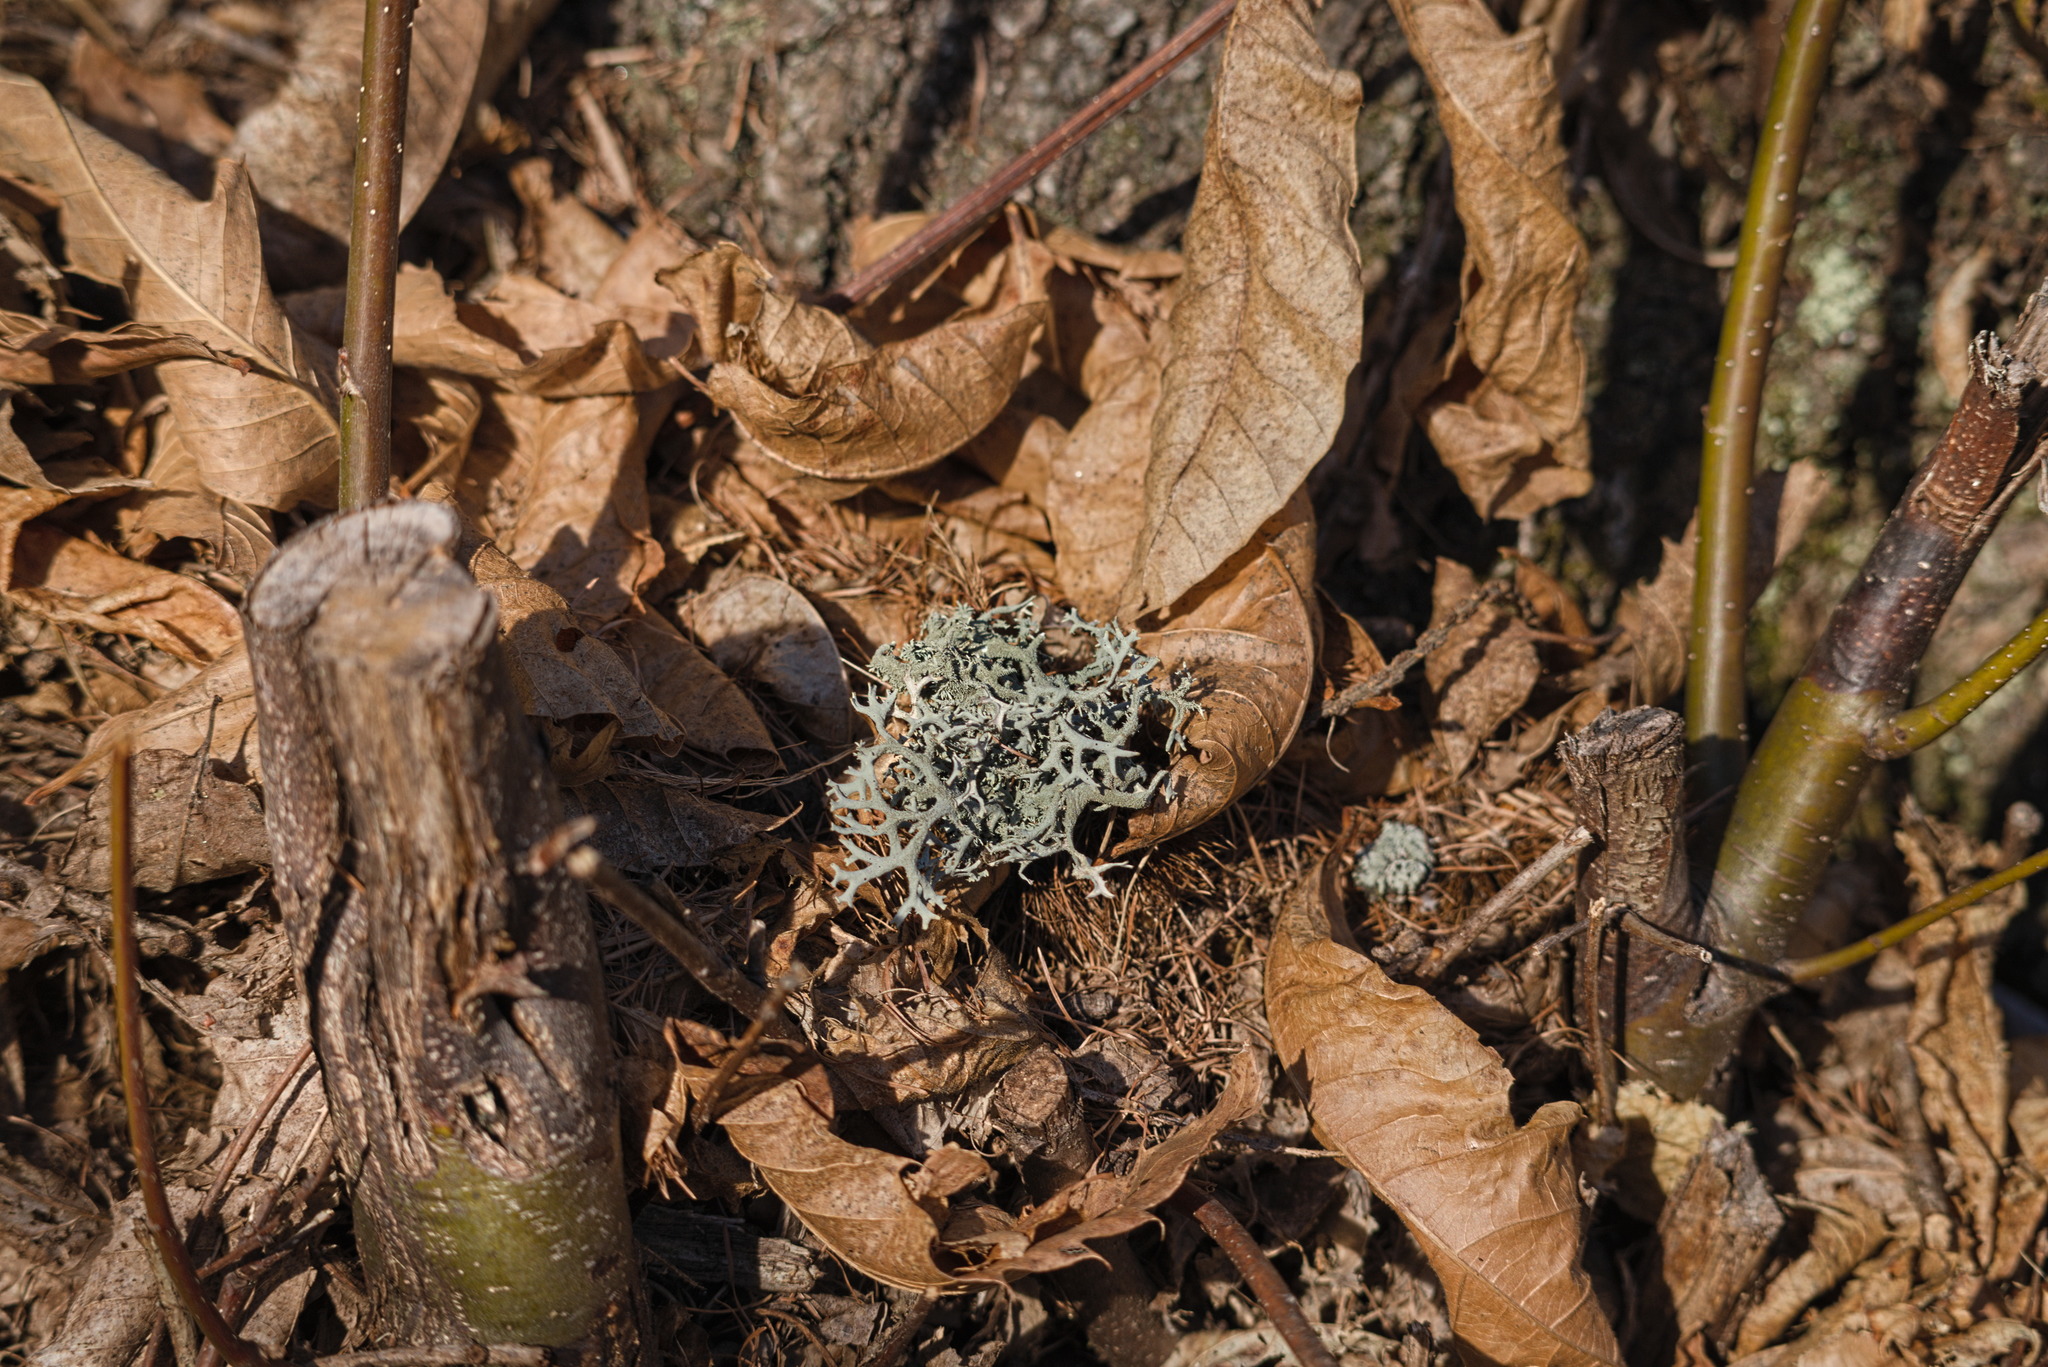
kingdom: Fungi
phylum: Ascomycota
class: Lecanoromycetes
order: Lecanorales
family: Parmeliaceae
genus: Evernia
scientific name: Evernia prunastri
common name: Oak moss
